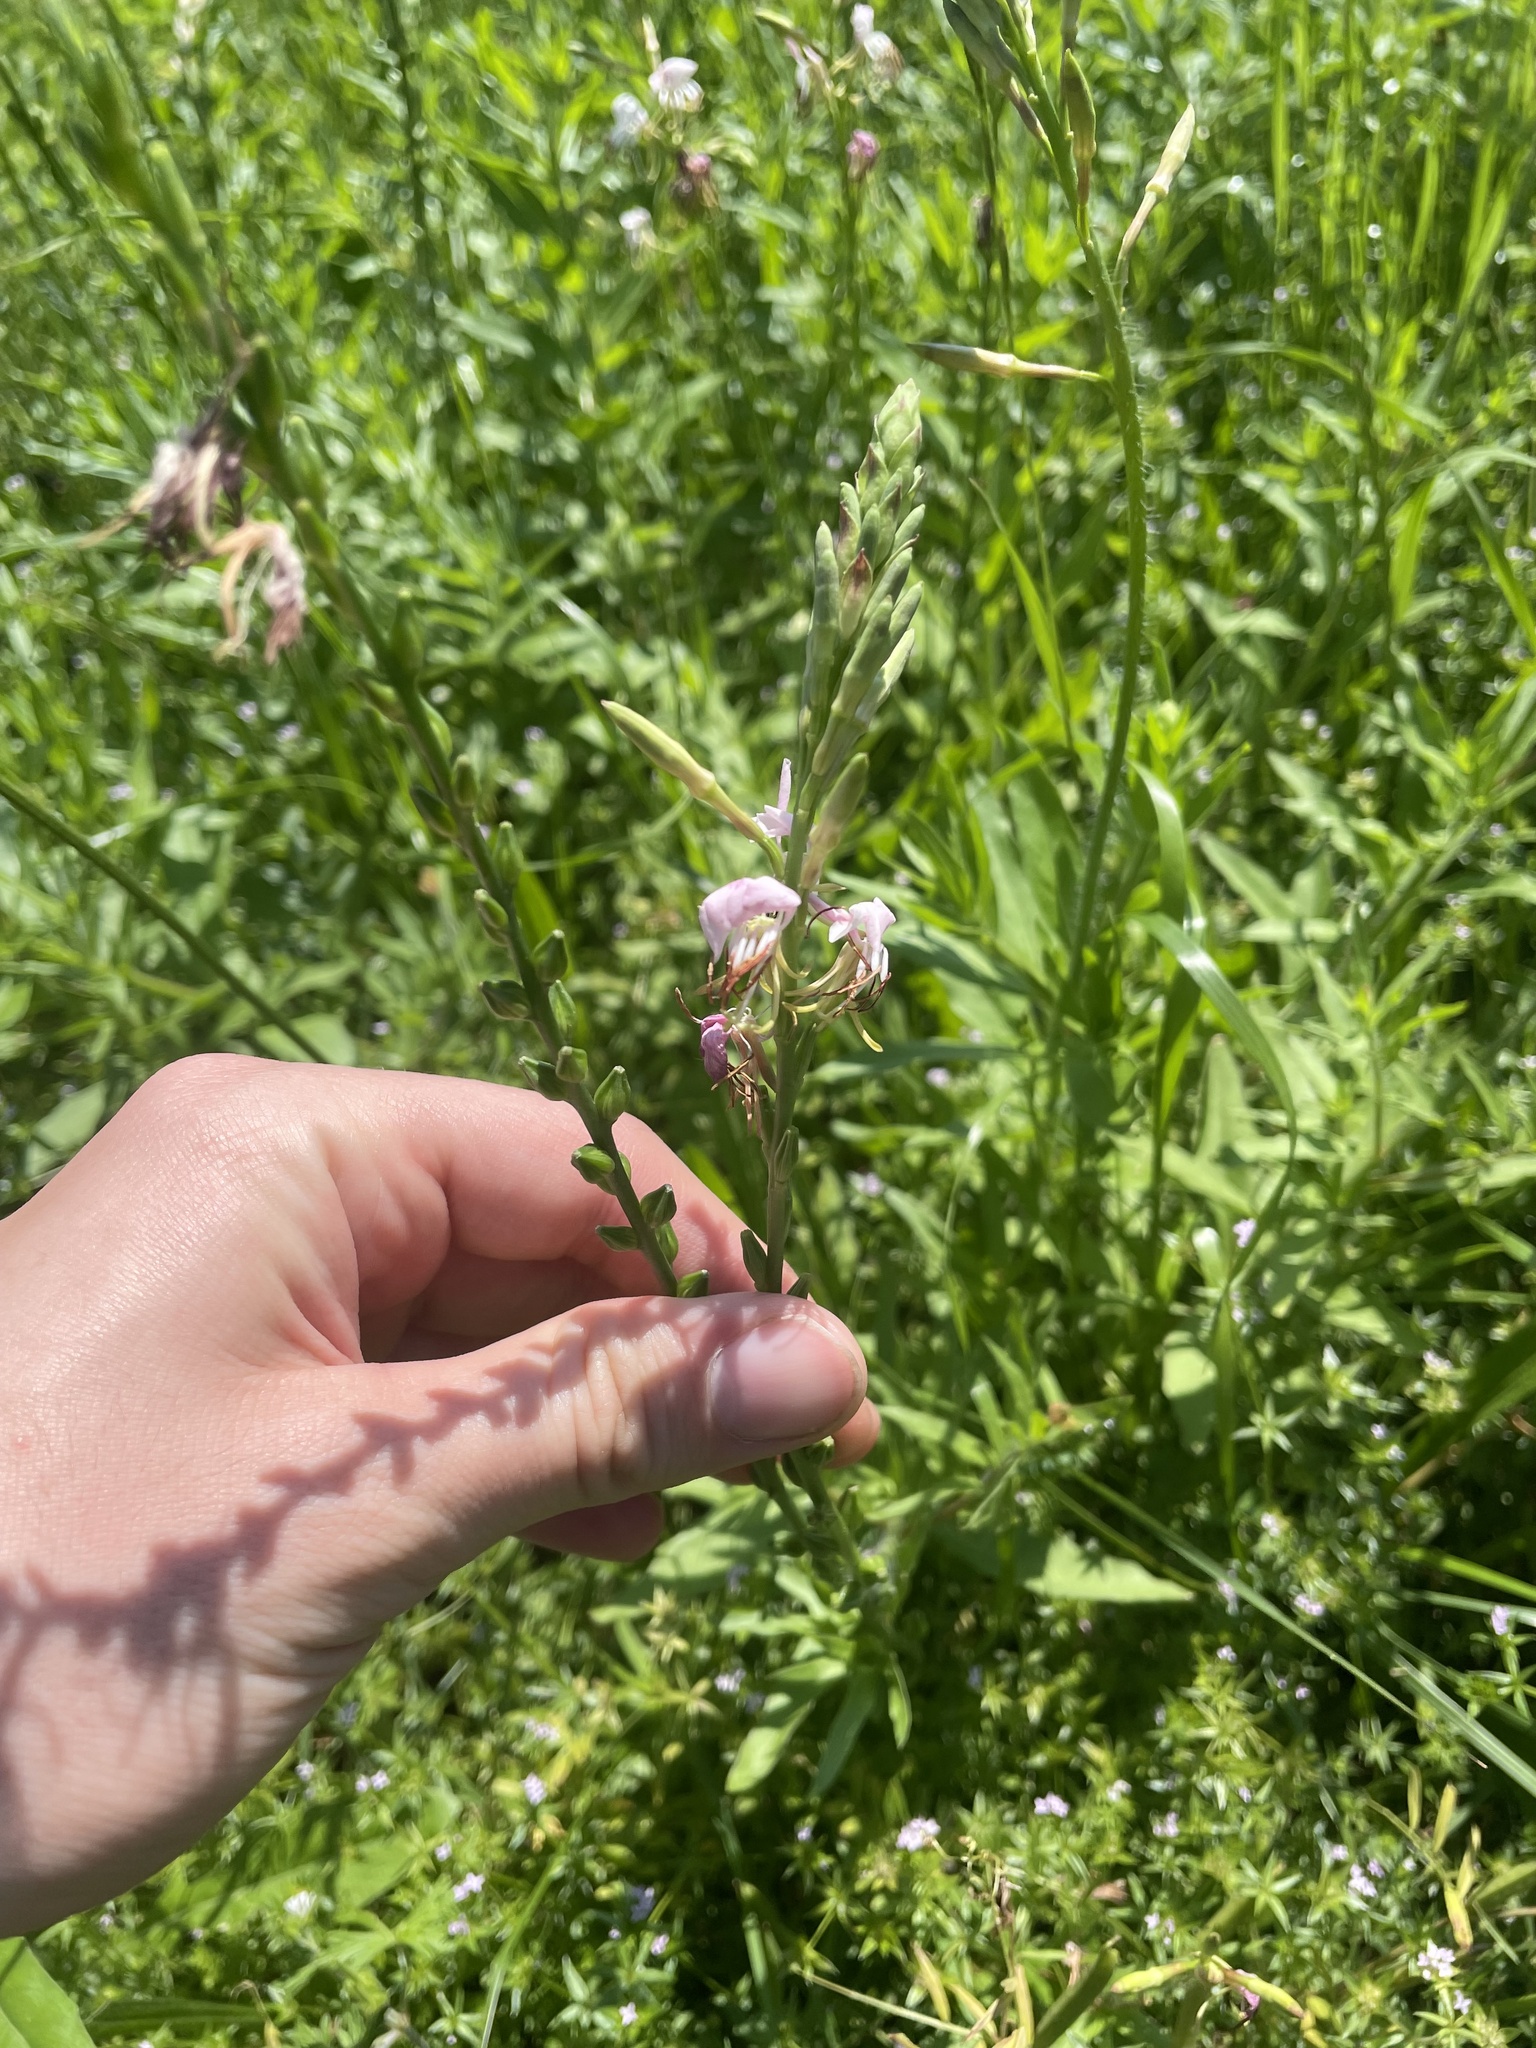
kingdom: Plantae
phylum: Tracheophyta
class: Magnoliopsida
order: Myrtales
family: Onagraceae
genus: Oenothera
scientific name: Oenothera suffulta
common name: Kisses
